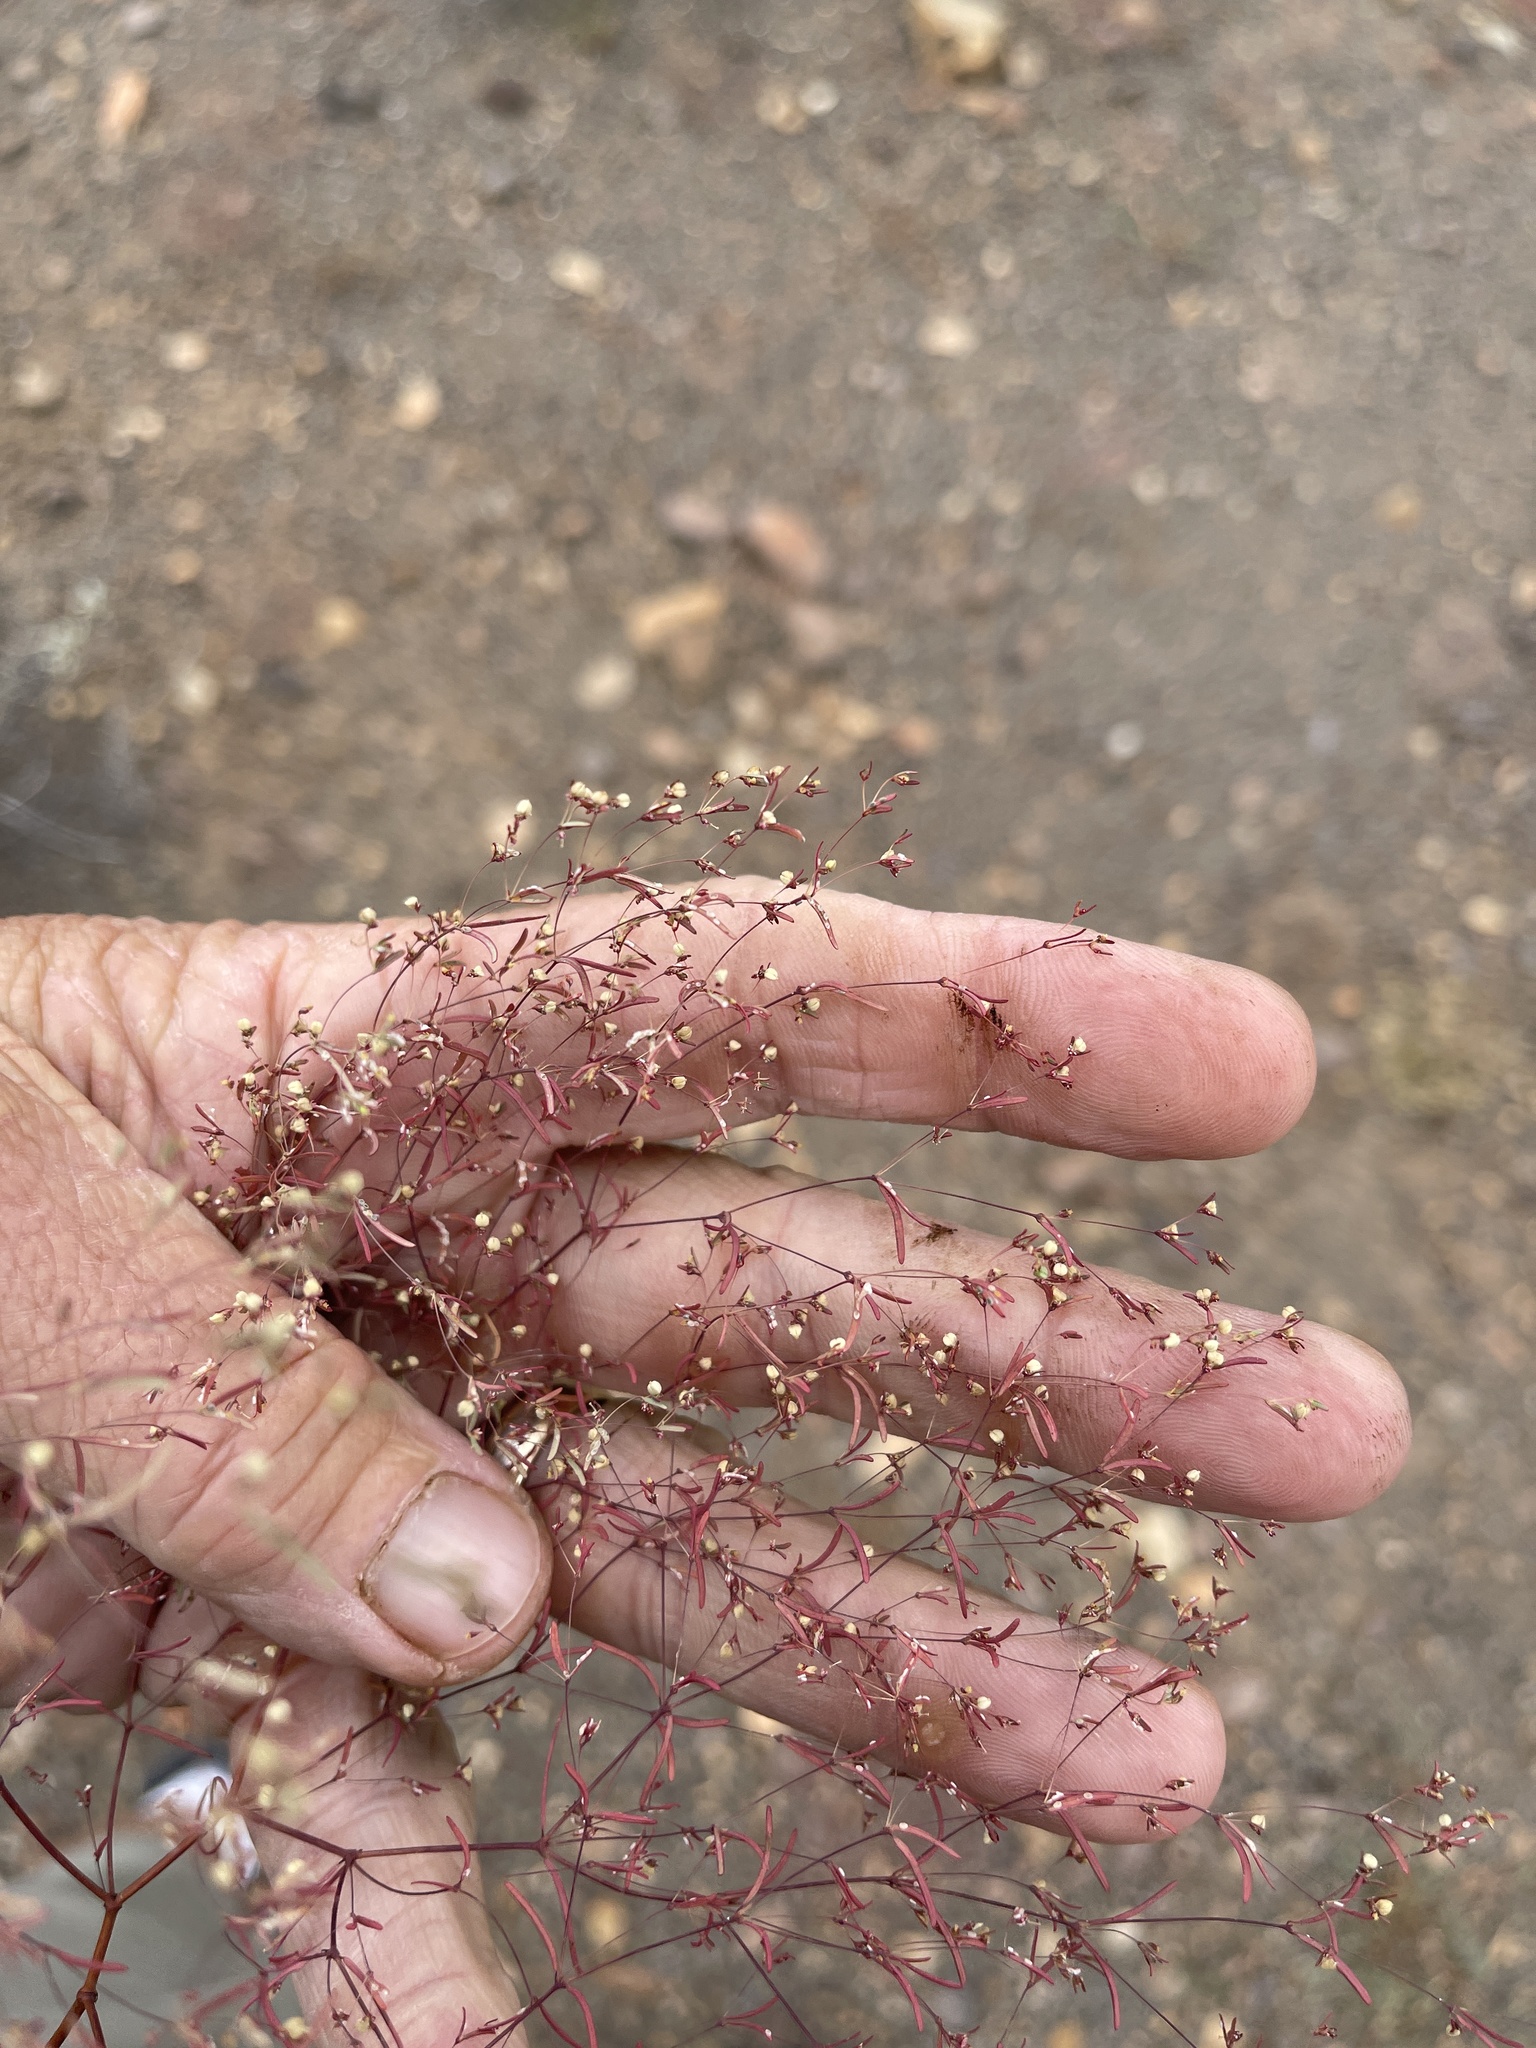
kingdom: Plantae
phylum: Tracheophyta
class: Magnoliopsida
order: Malpighiales
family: Euphorbiaceae
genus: Euphorbia
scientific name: Euphorbia gracillima
